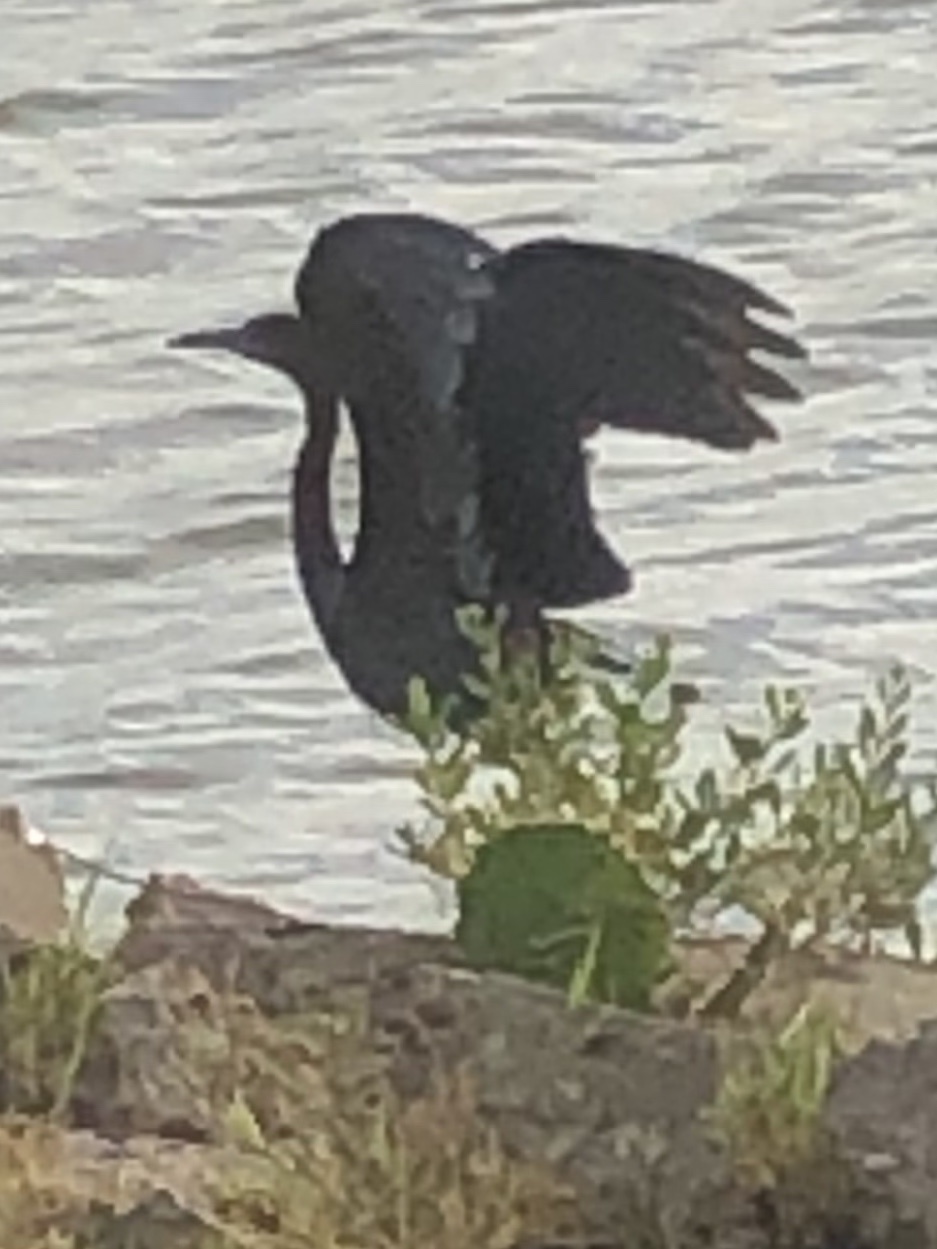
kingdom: Animalia
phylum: Chordata
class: Aves
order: Pelecaniformes
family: Ardeidae
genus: Egretta
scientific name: Egretta caerulea
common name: Little blue heron
